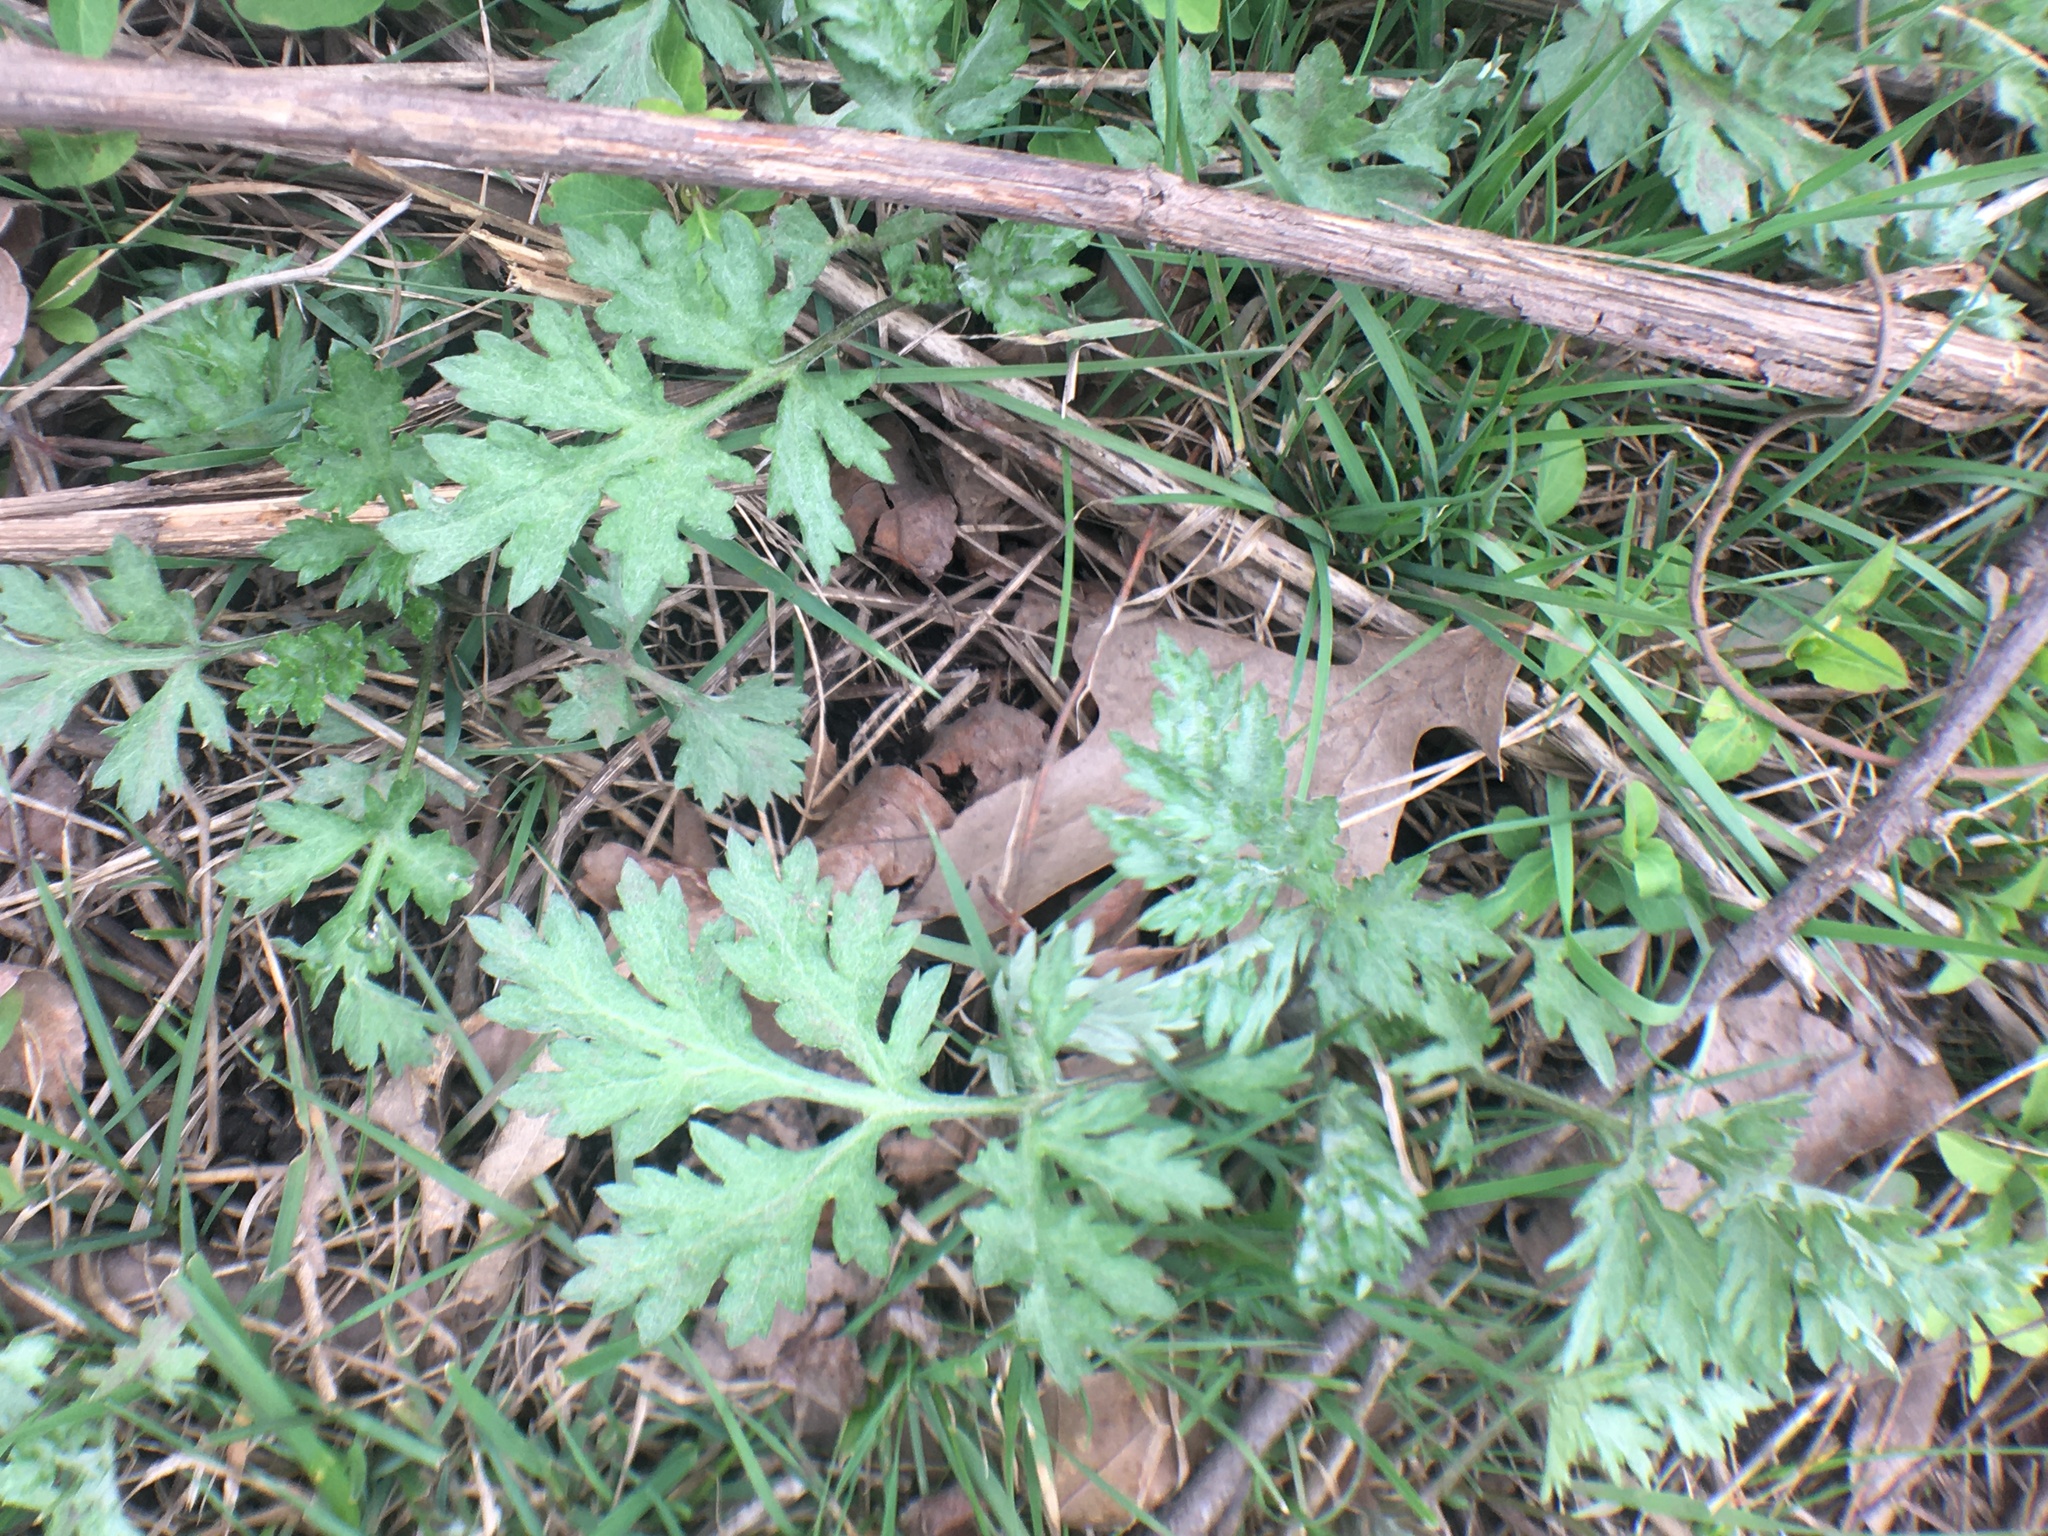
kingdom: Plantae
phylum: Tracheophyta
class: Magnoliopsida
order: Asterales
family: Asteraceae
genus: Artemisia
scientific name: Artemisia vulgaris
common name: Mugwort
